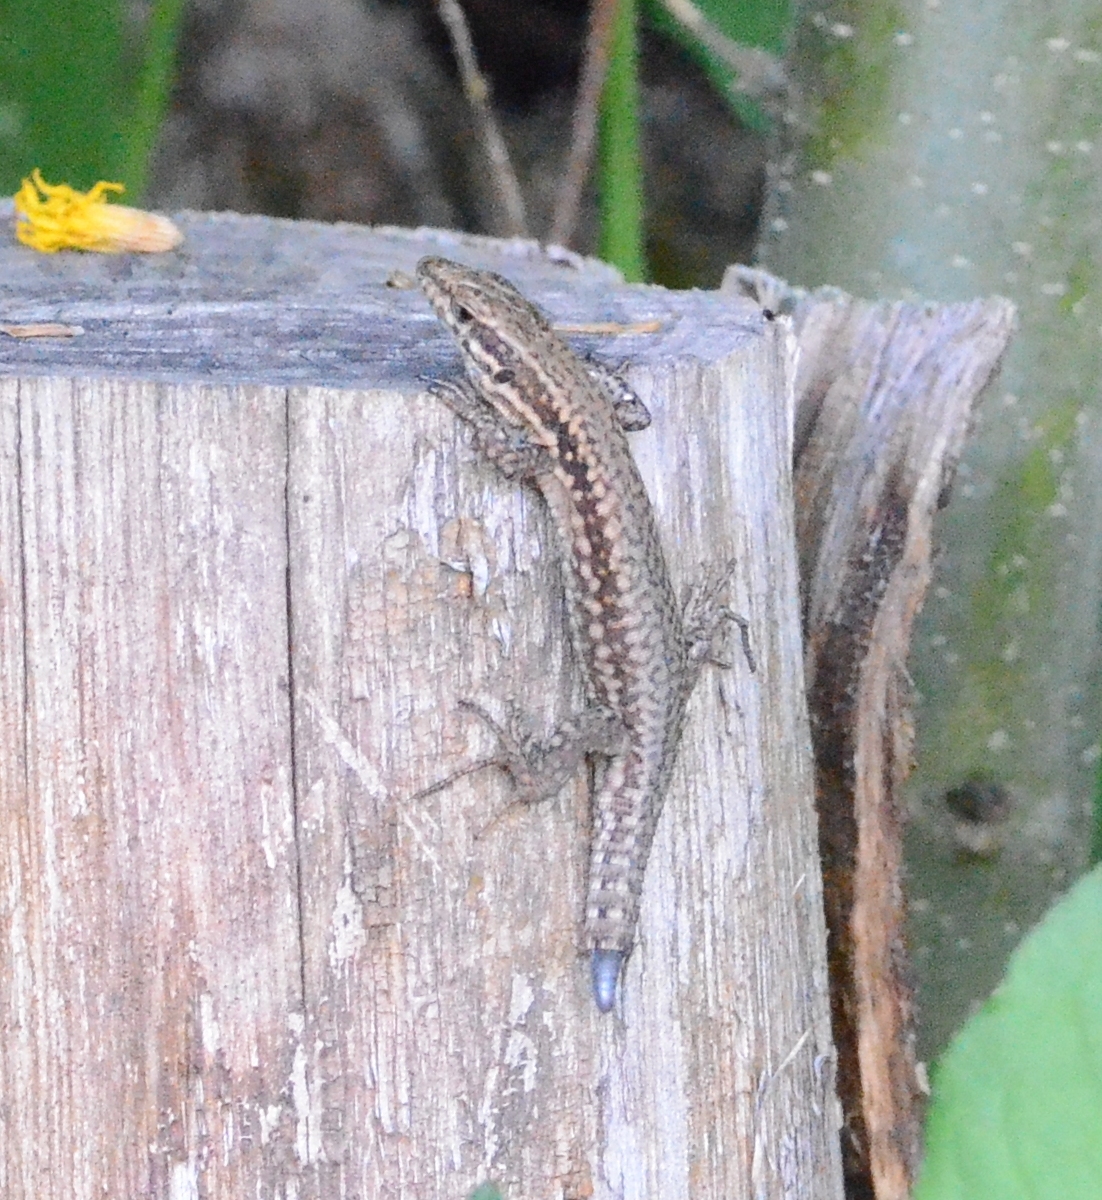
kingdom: Animalia
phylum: Chordata
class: Squamata
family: Lacertidae
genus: Podarcis
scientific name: Podarcis muralis
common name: Common wall lizard
